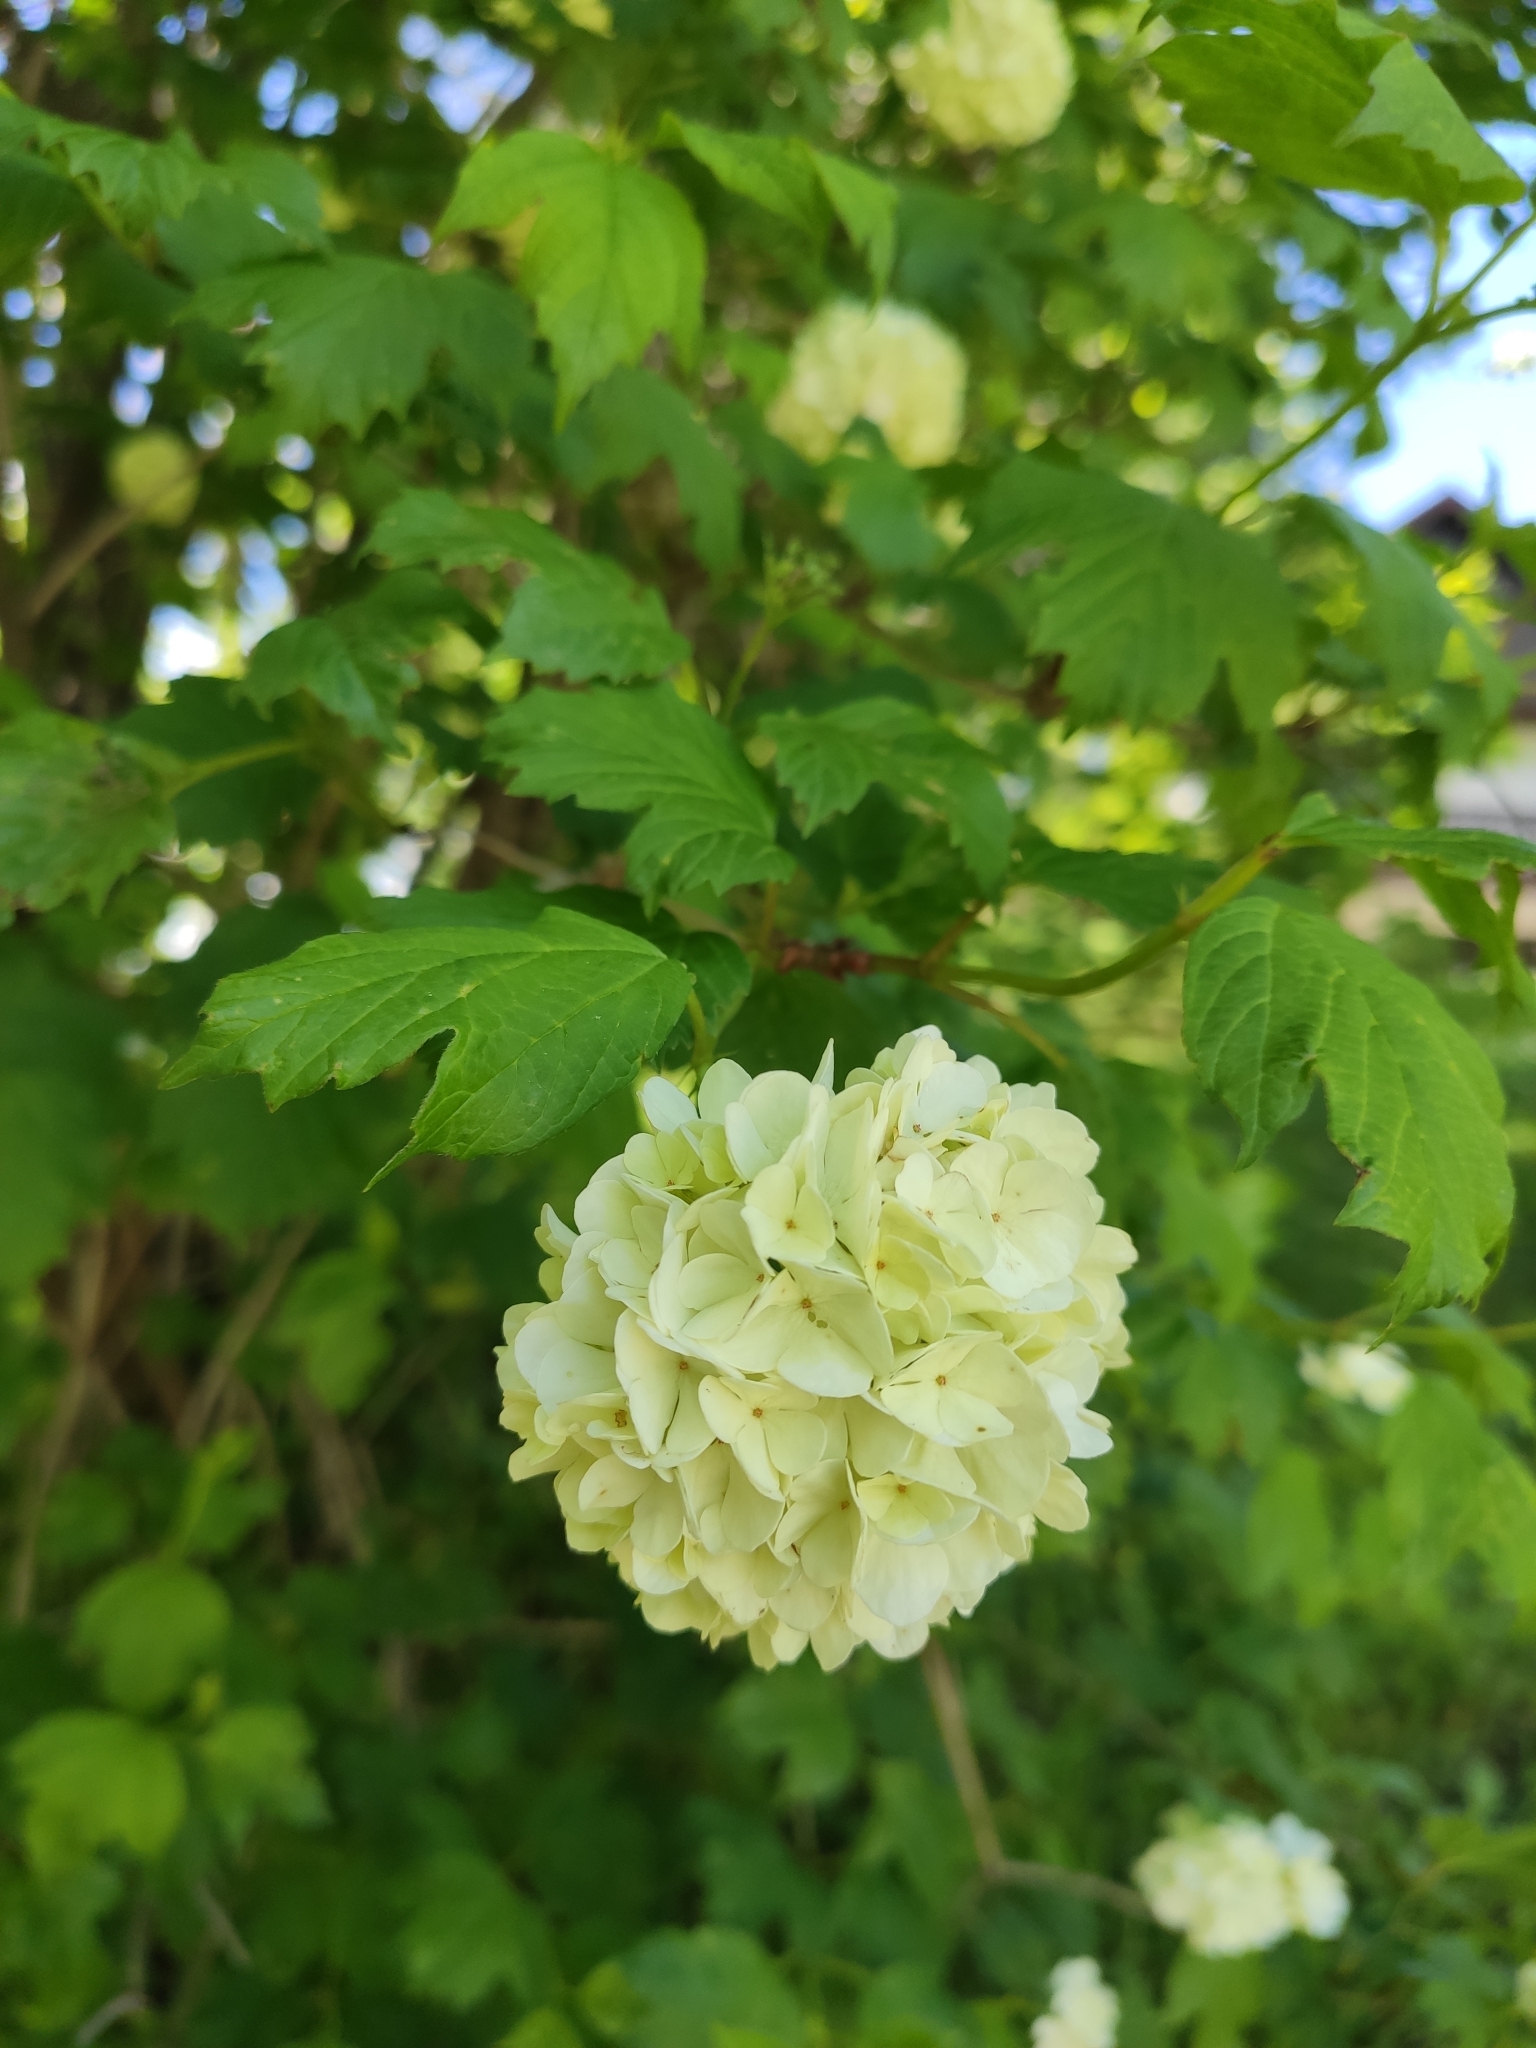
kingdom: Plantae
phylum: Tracheophyta
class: Magnoliopsida
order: Dipsacales
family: Viburnaceae
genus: Viburnum
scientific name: Viburnum opulus
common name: Guelder-rose
